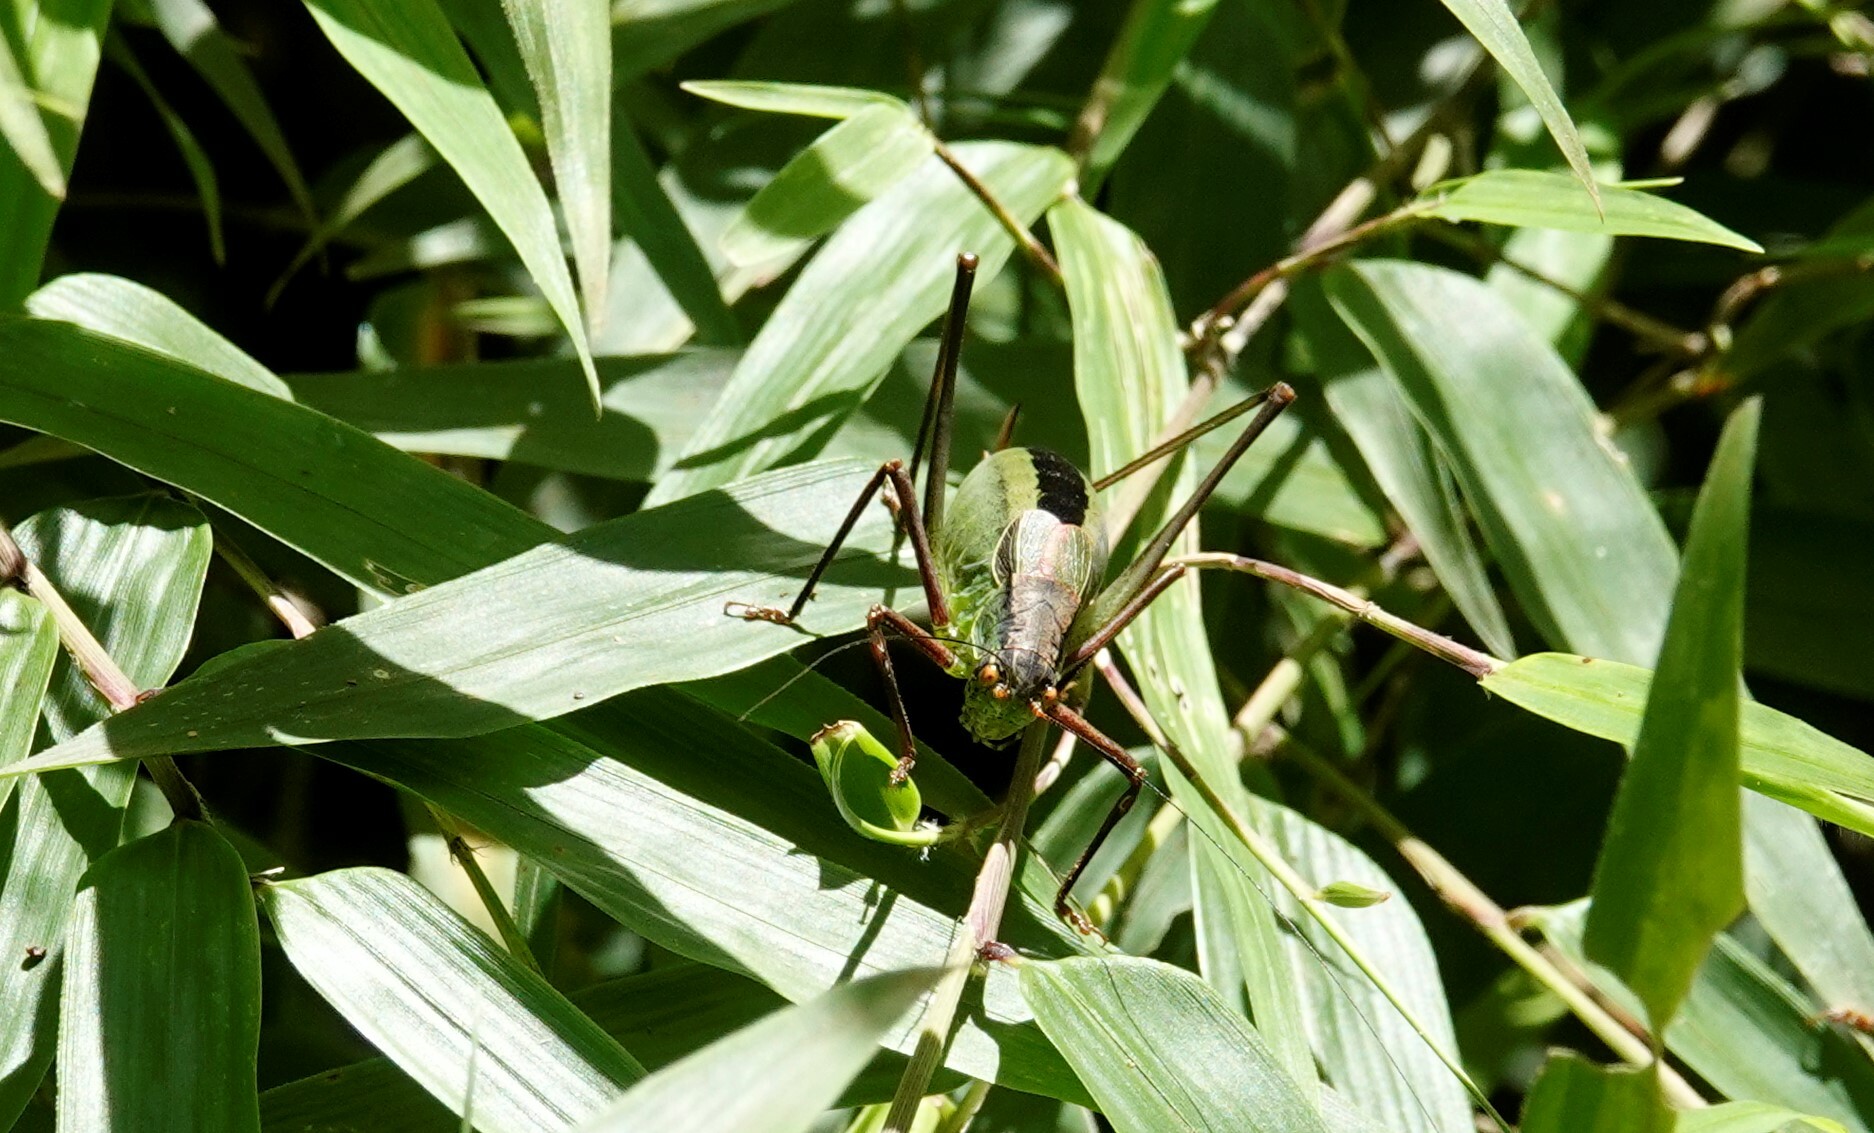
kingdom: Animalia
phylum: Arthropoda
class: Insecta
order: Orthoptera
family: Tettigoniidae
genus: Anisophya
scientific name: Anisophya melanochloris
